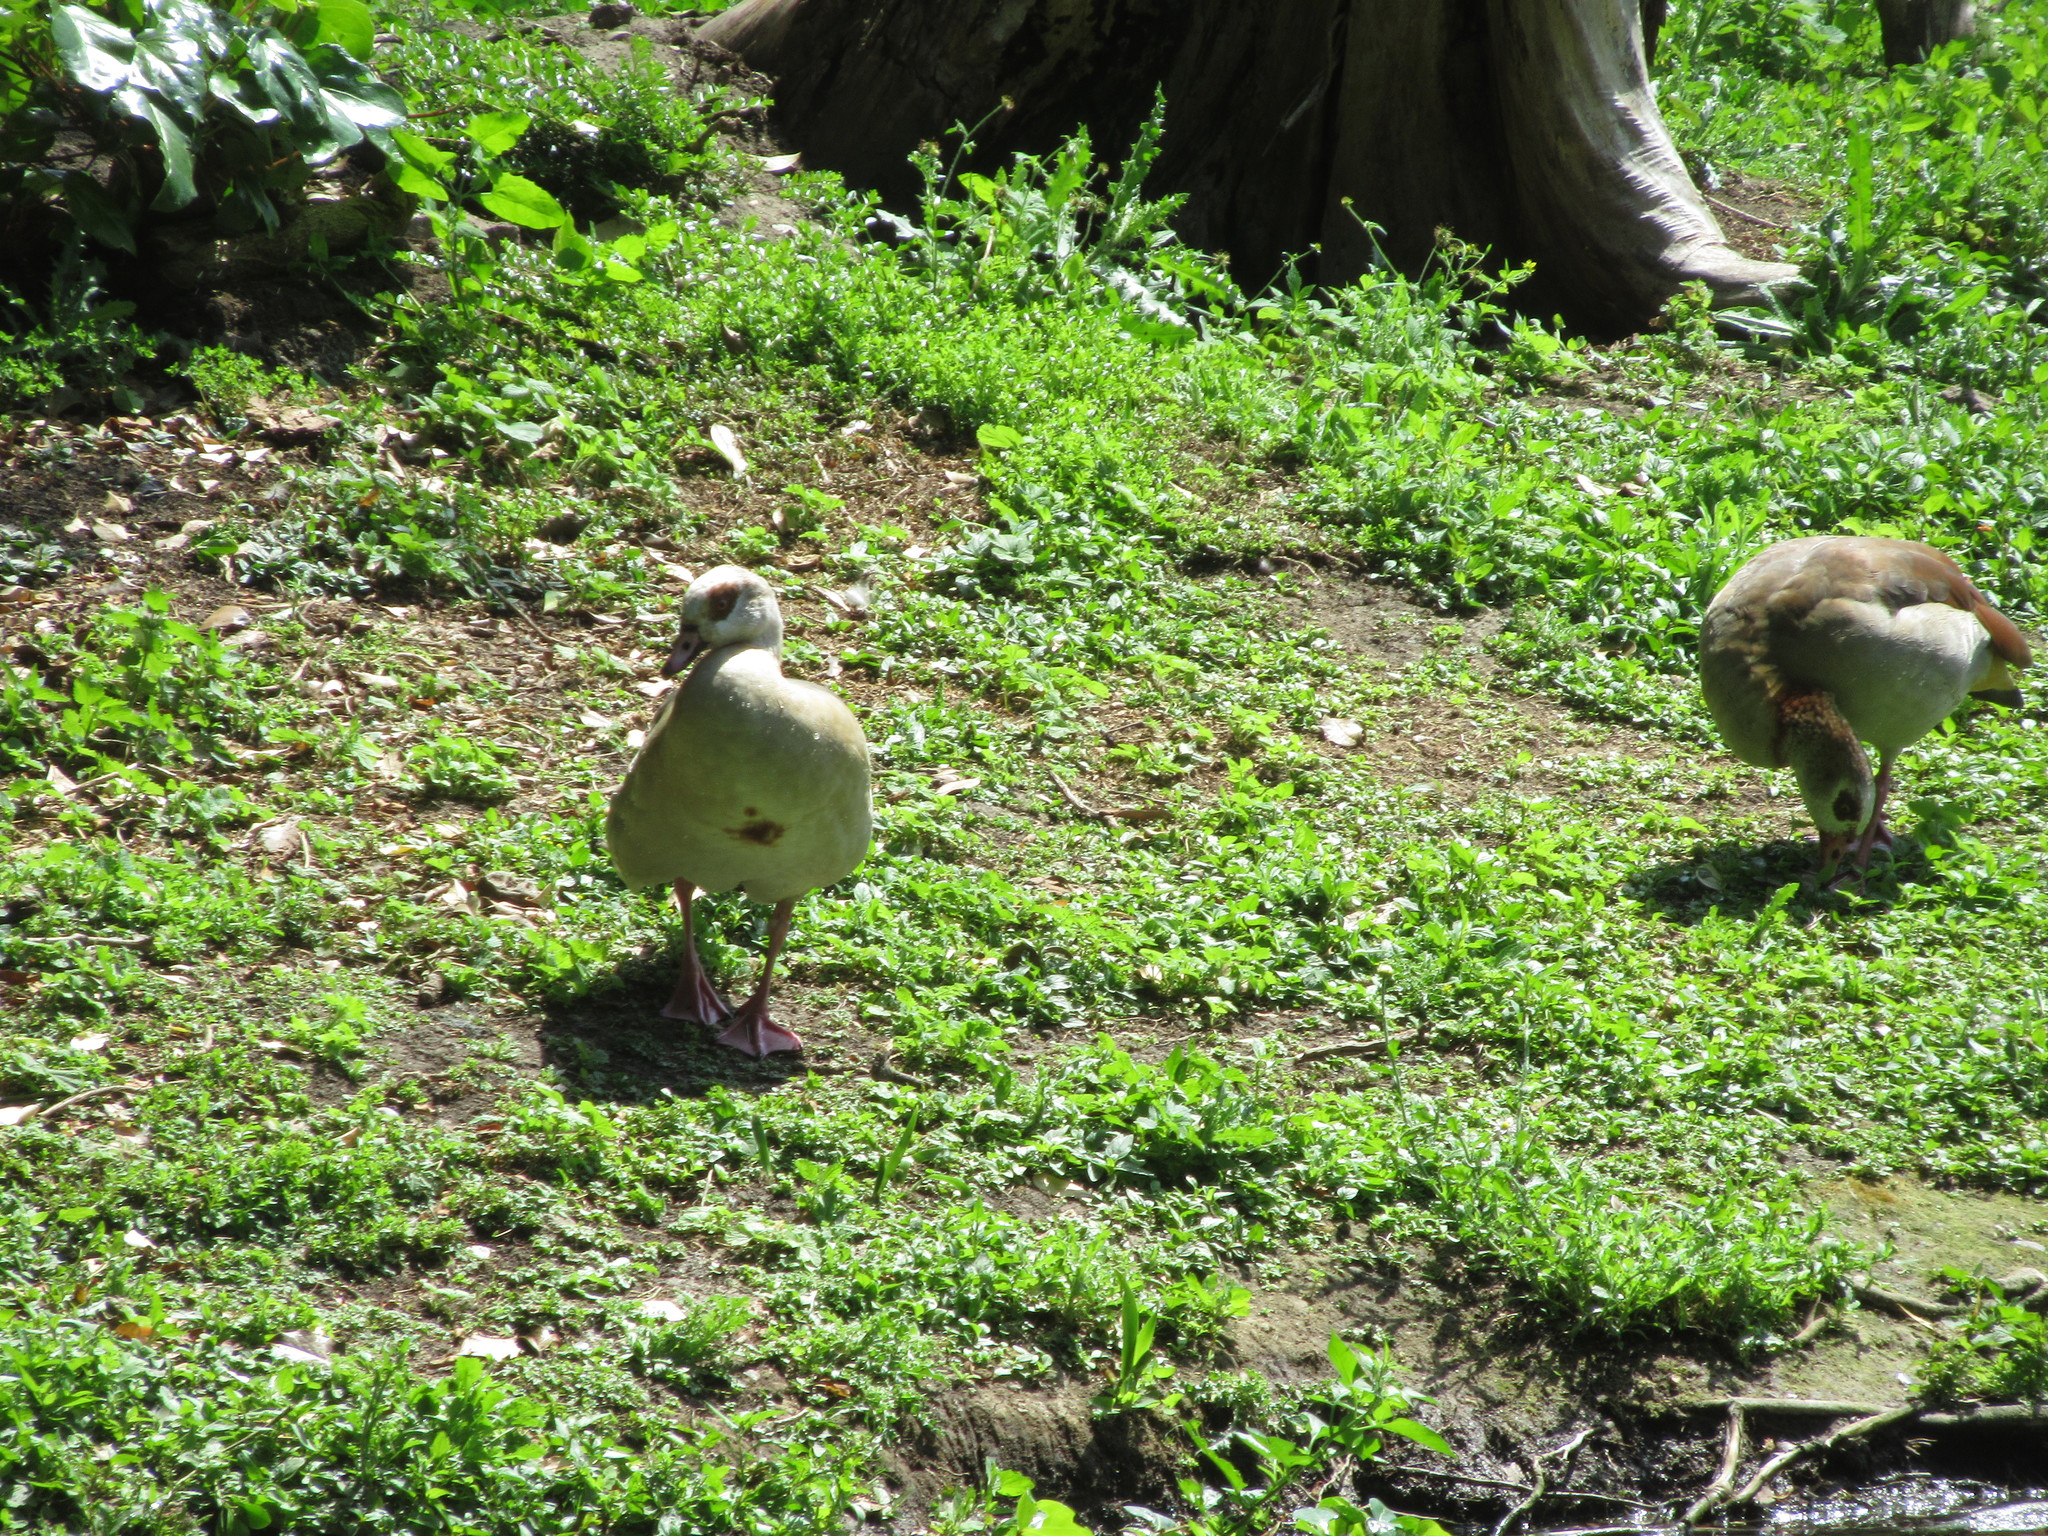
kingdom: Animalia
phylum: Chordata
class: Aves
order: Anseriformes
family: Anatidae
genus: Alopochen
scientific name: Alopochen aegyptiaca
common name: Egyptian goose
